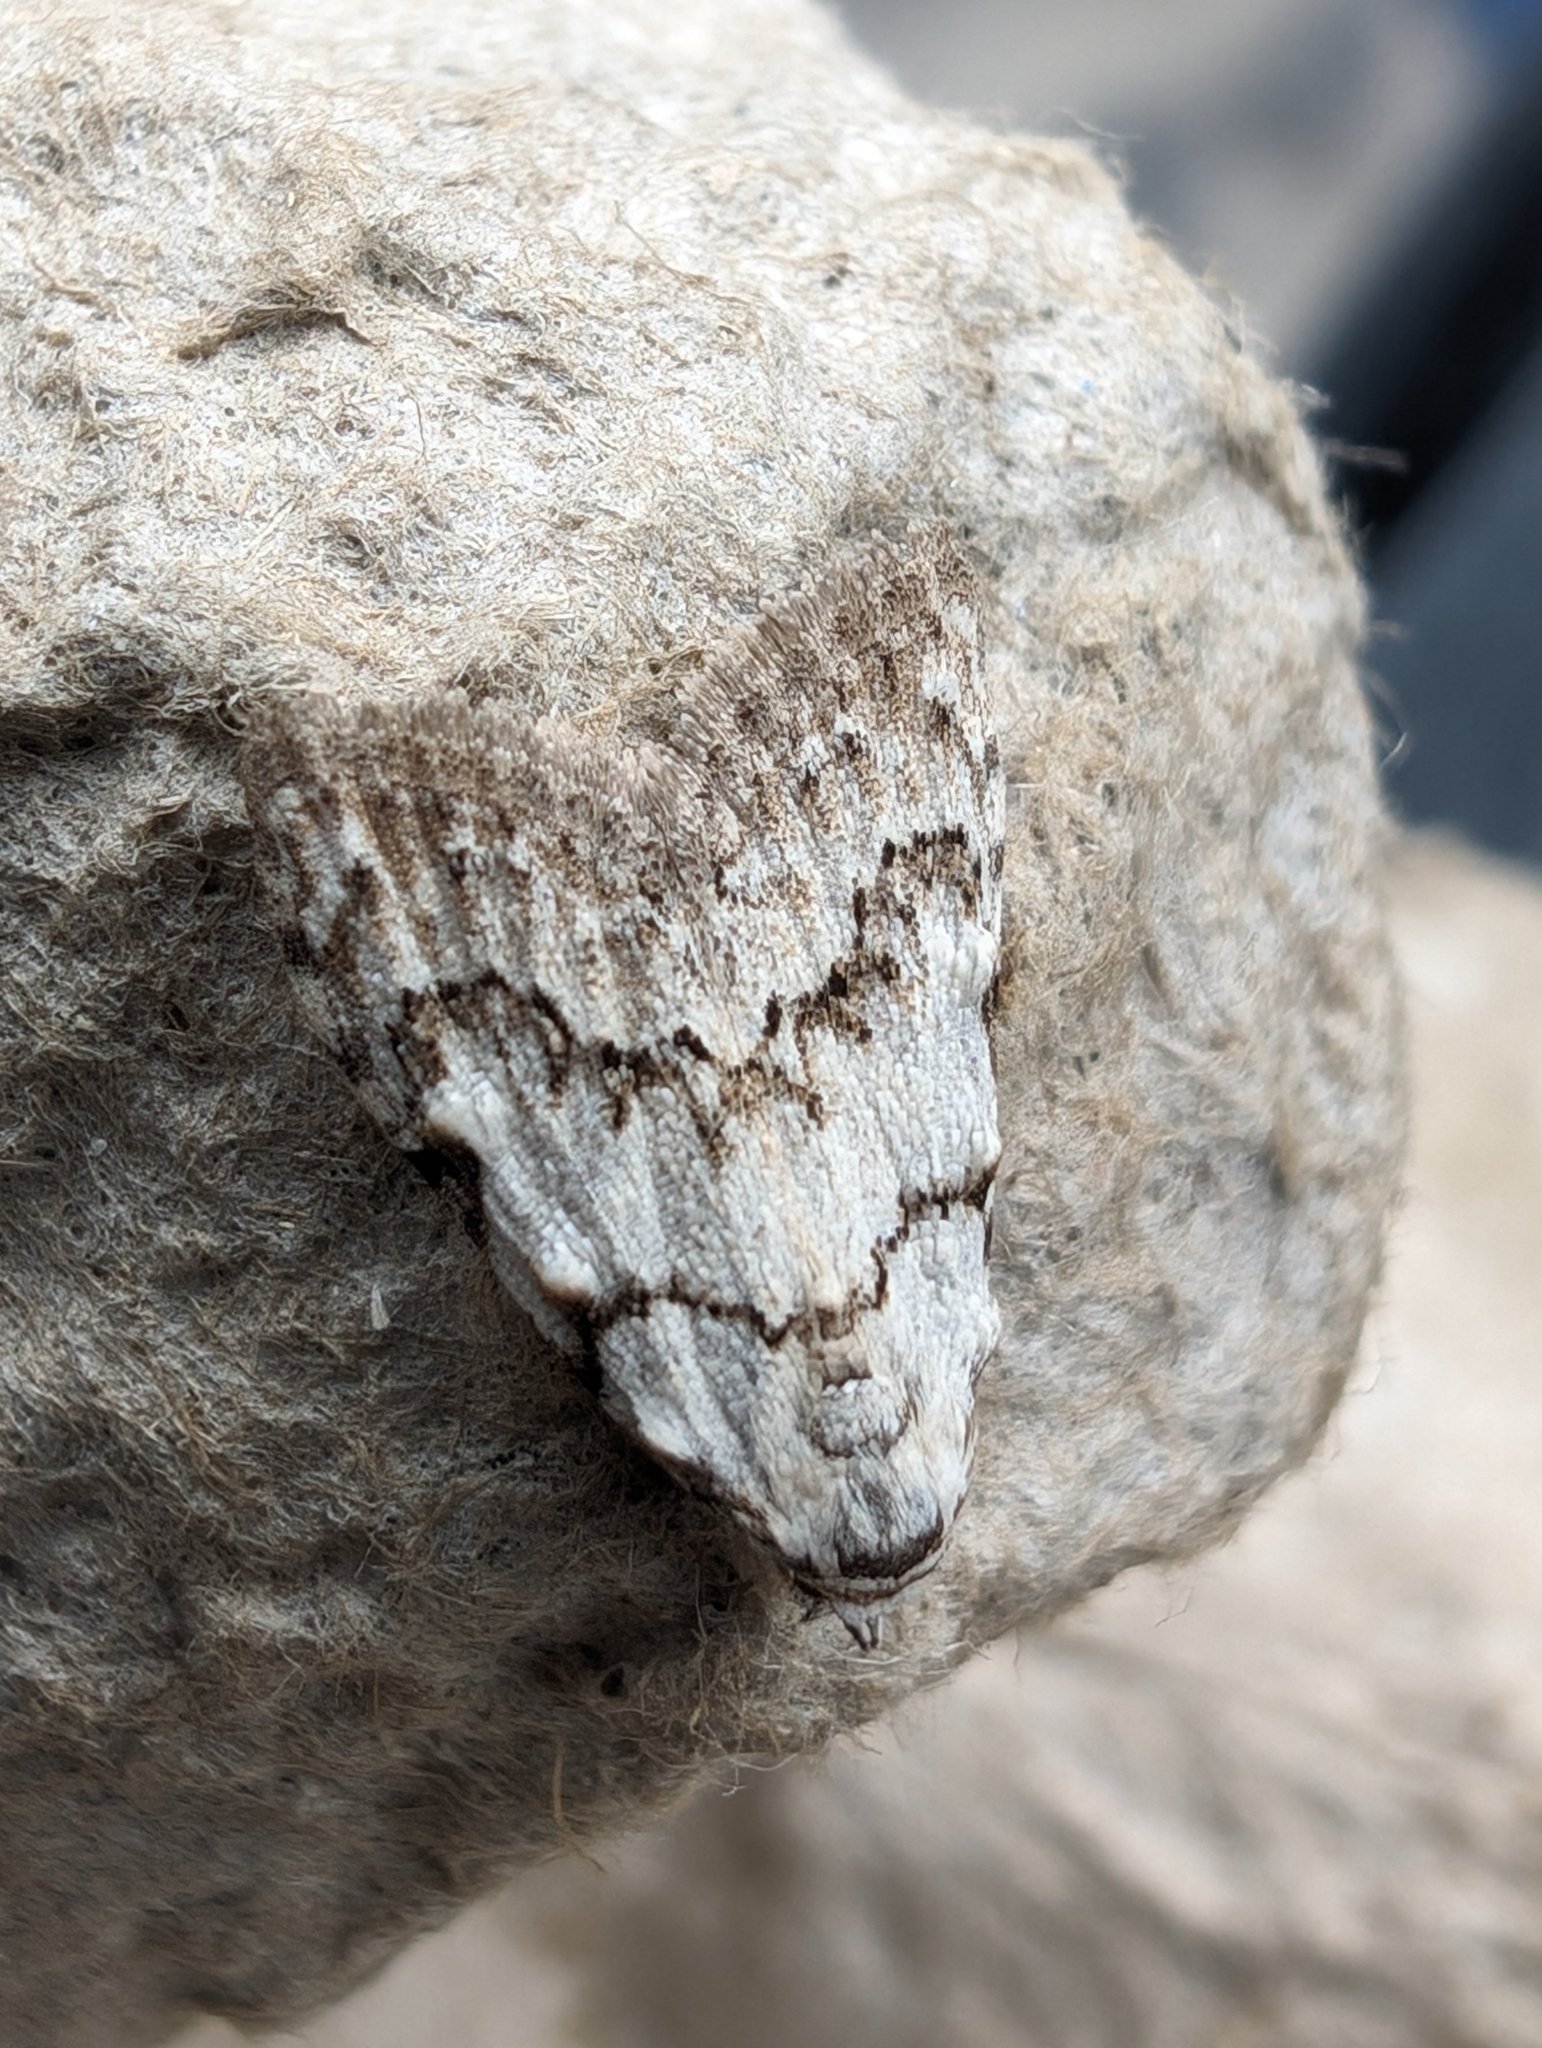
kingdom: Animalia
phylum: Arthropoda
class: Insecta
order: Lepidoptera
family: Nolidae
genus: Nola
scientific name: Nola confusalis
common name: Least black arches
